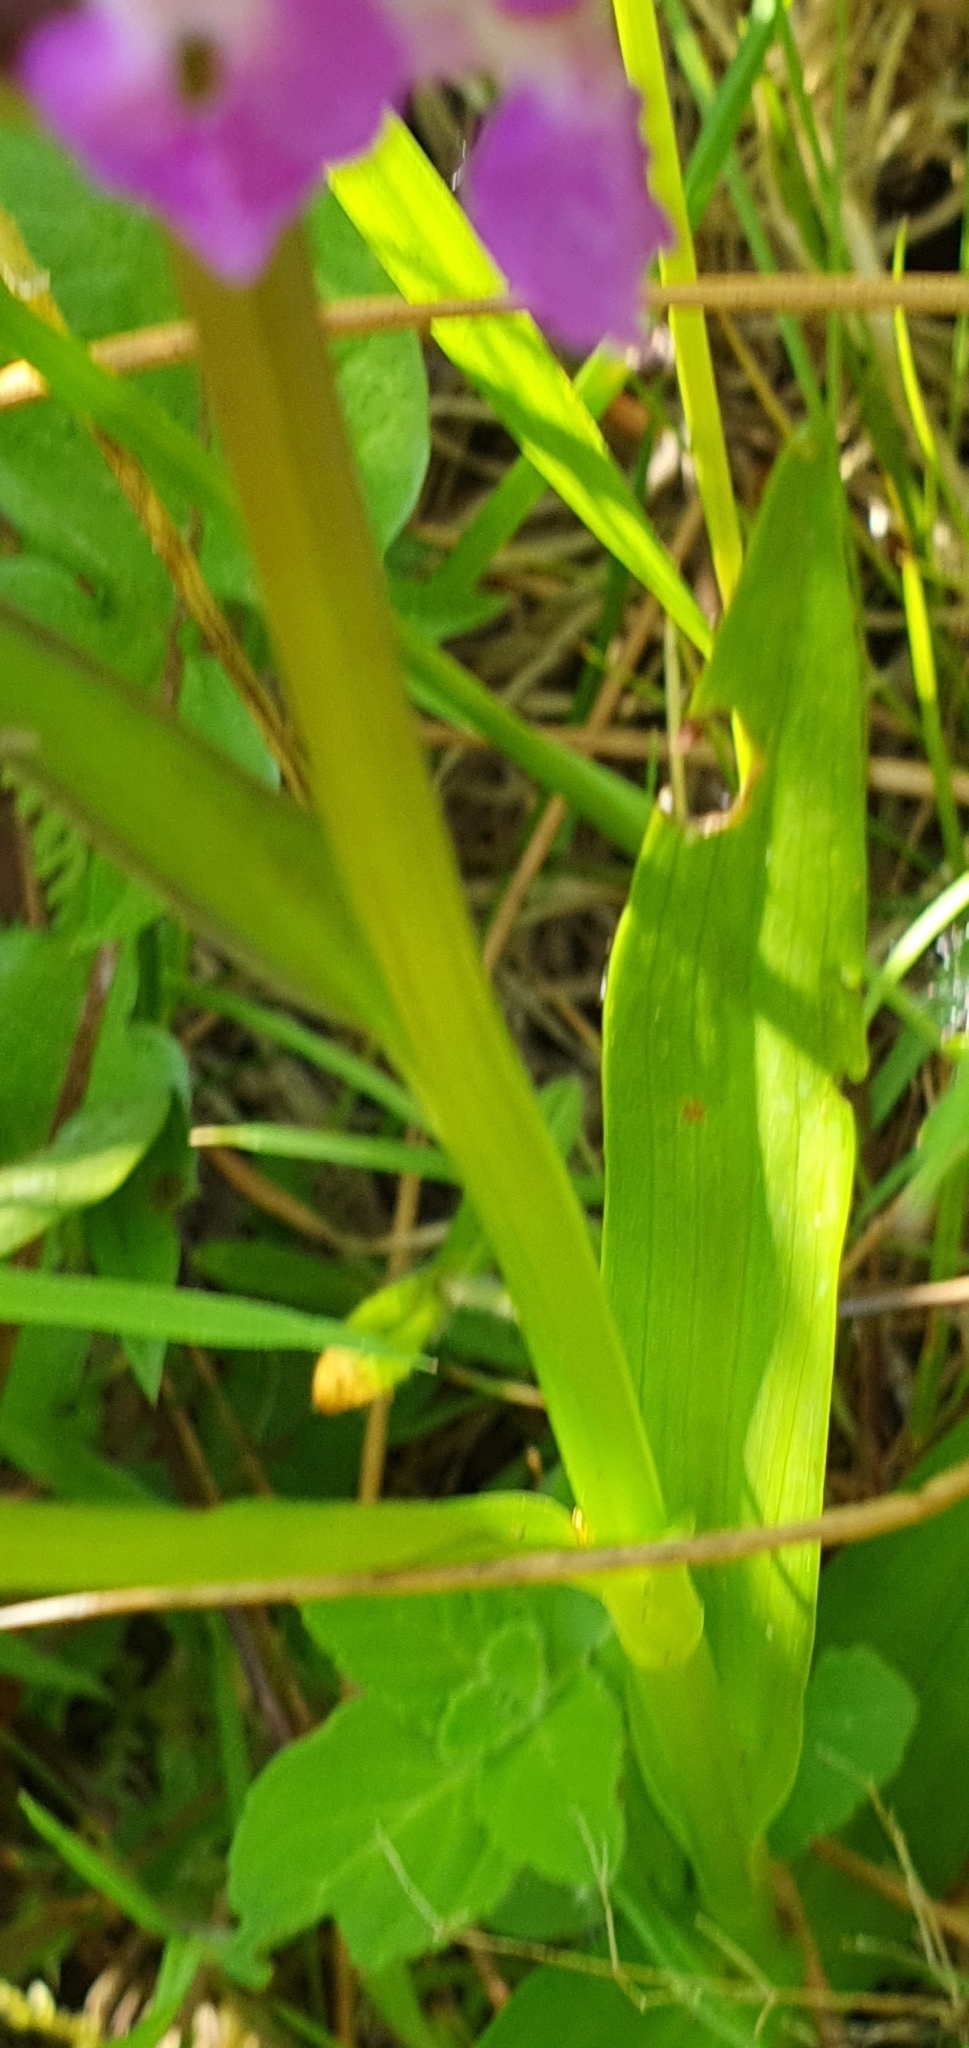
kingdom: Plantae
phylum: Tracheophyta
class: Liliopsida
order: Asparagales
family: Orchidaceae
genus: Dactylorhiza
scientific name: Dactylorhiza majalis
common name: Marsh orchid
